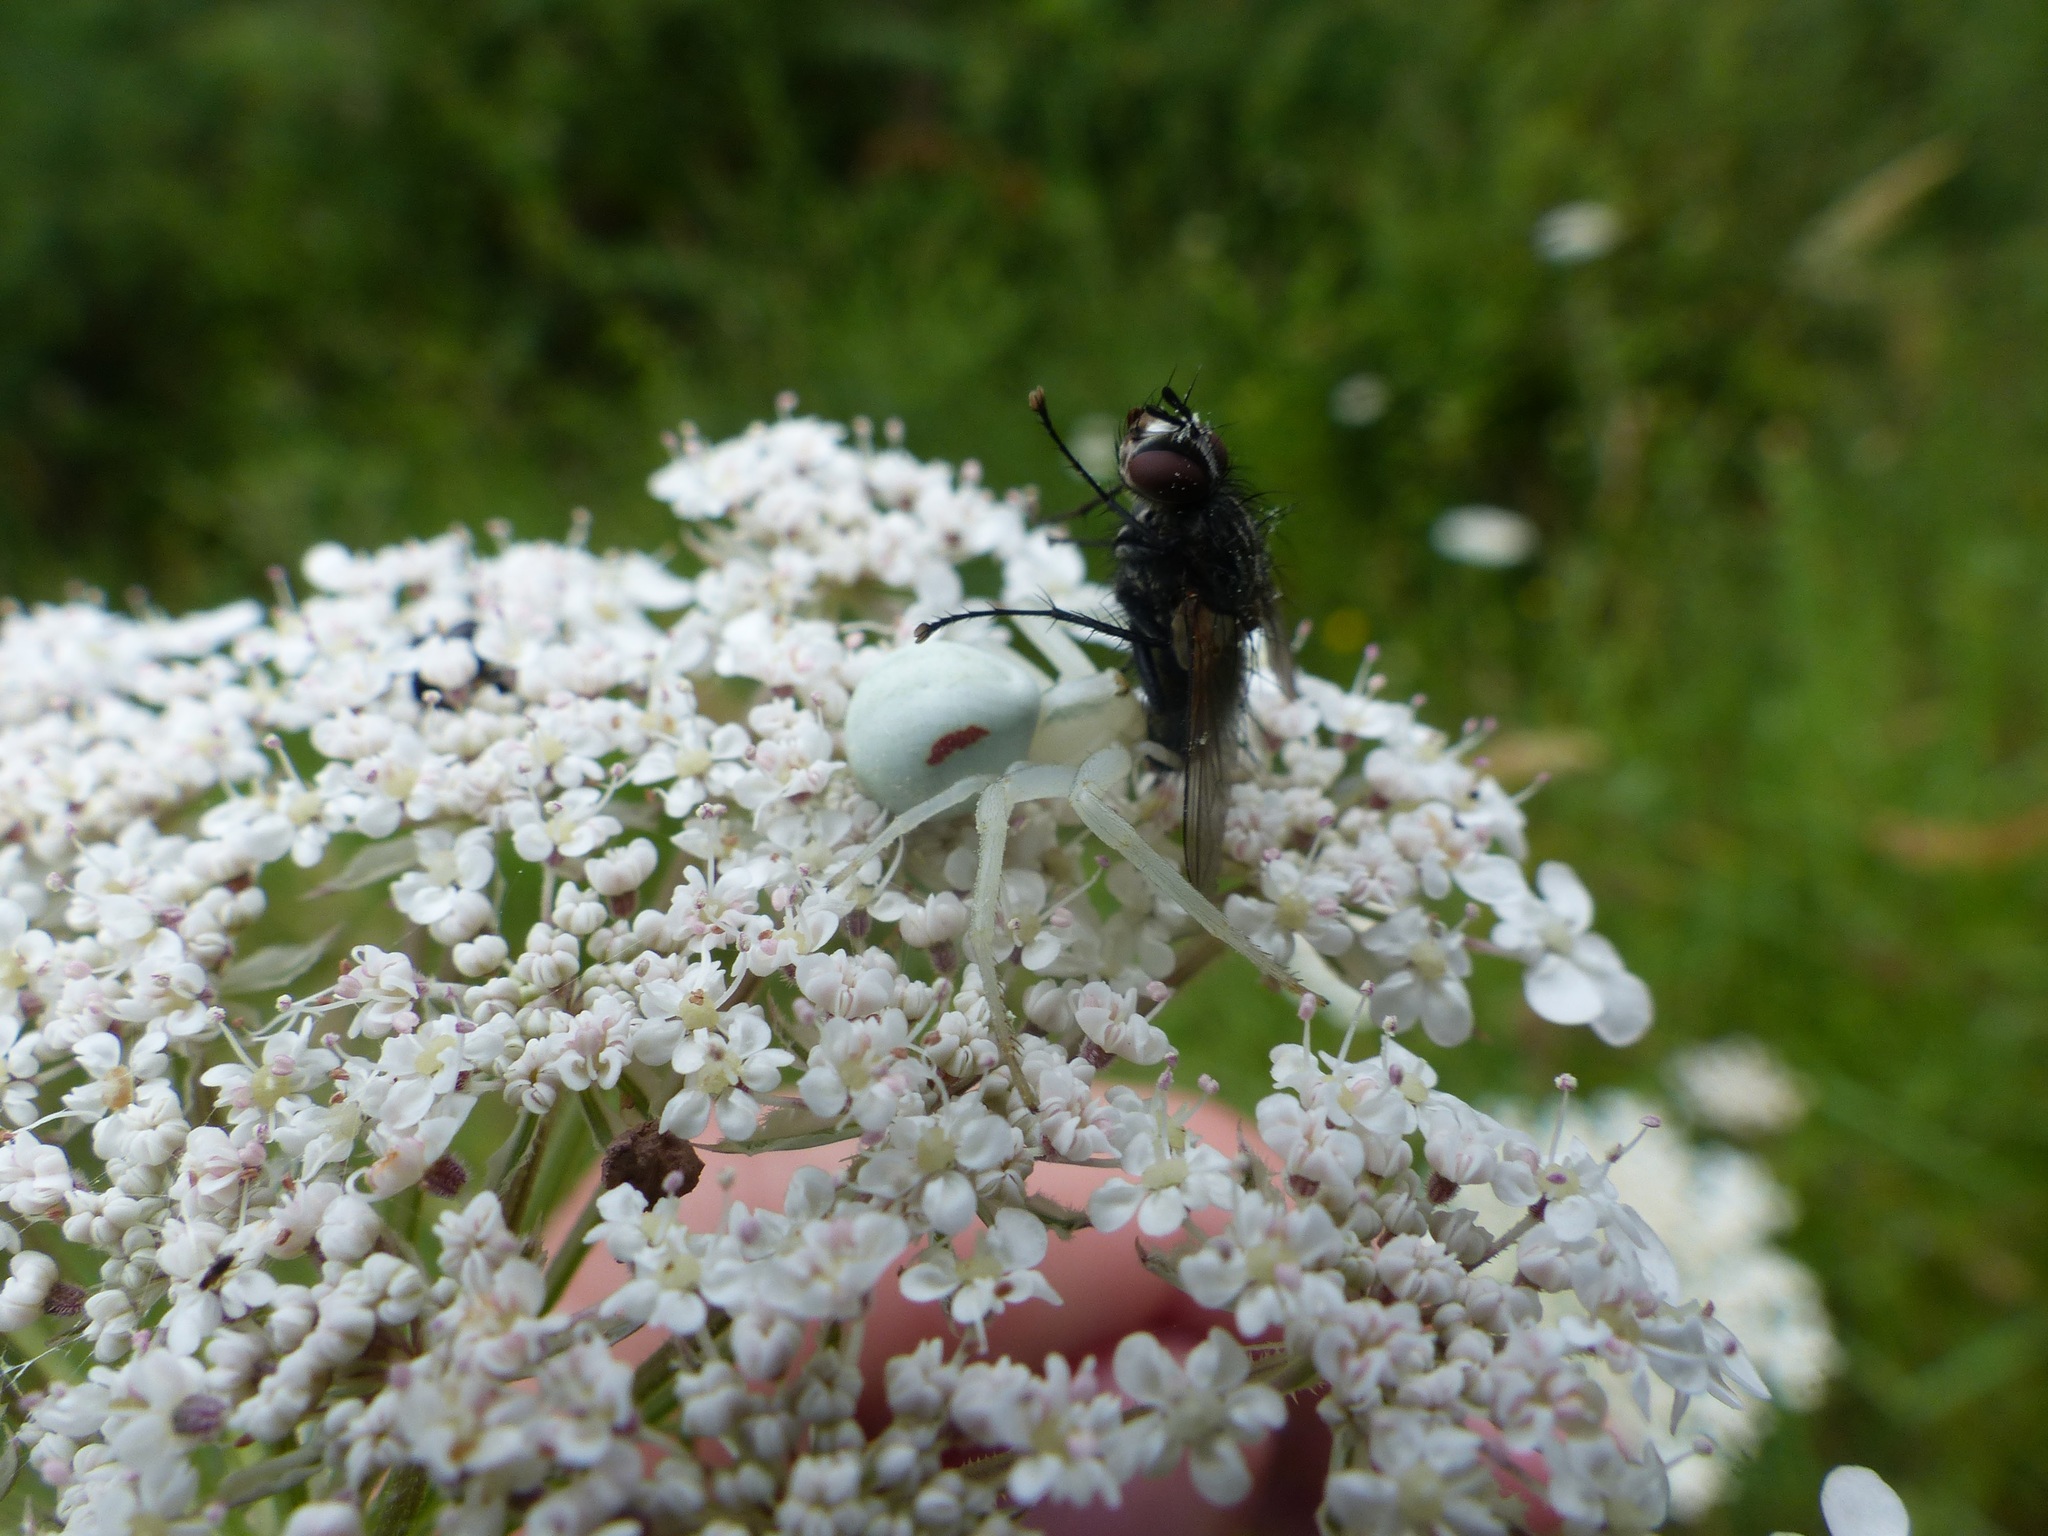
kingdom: Animalia
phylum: Arthropoda
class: Arachnida
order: Araneae
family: Thomisidae
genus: Misumena
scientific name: Misumena vatia
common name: Goldenrod crab spider
